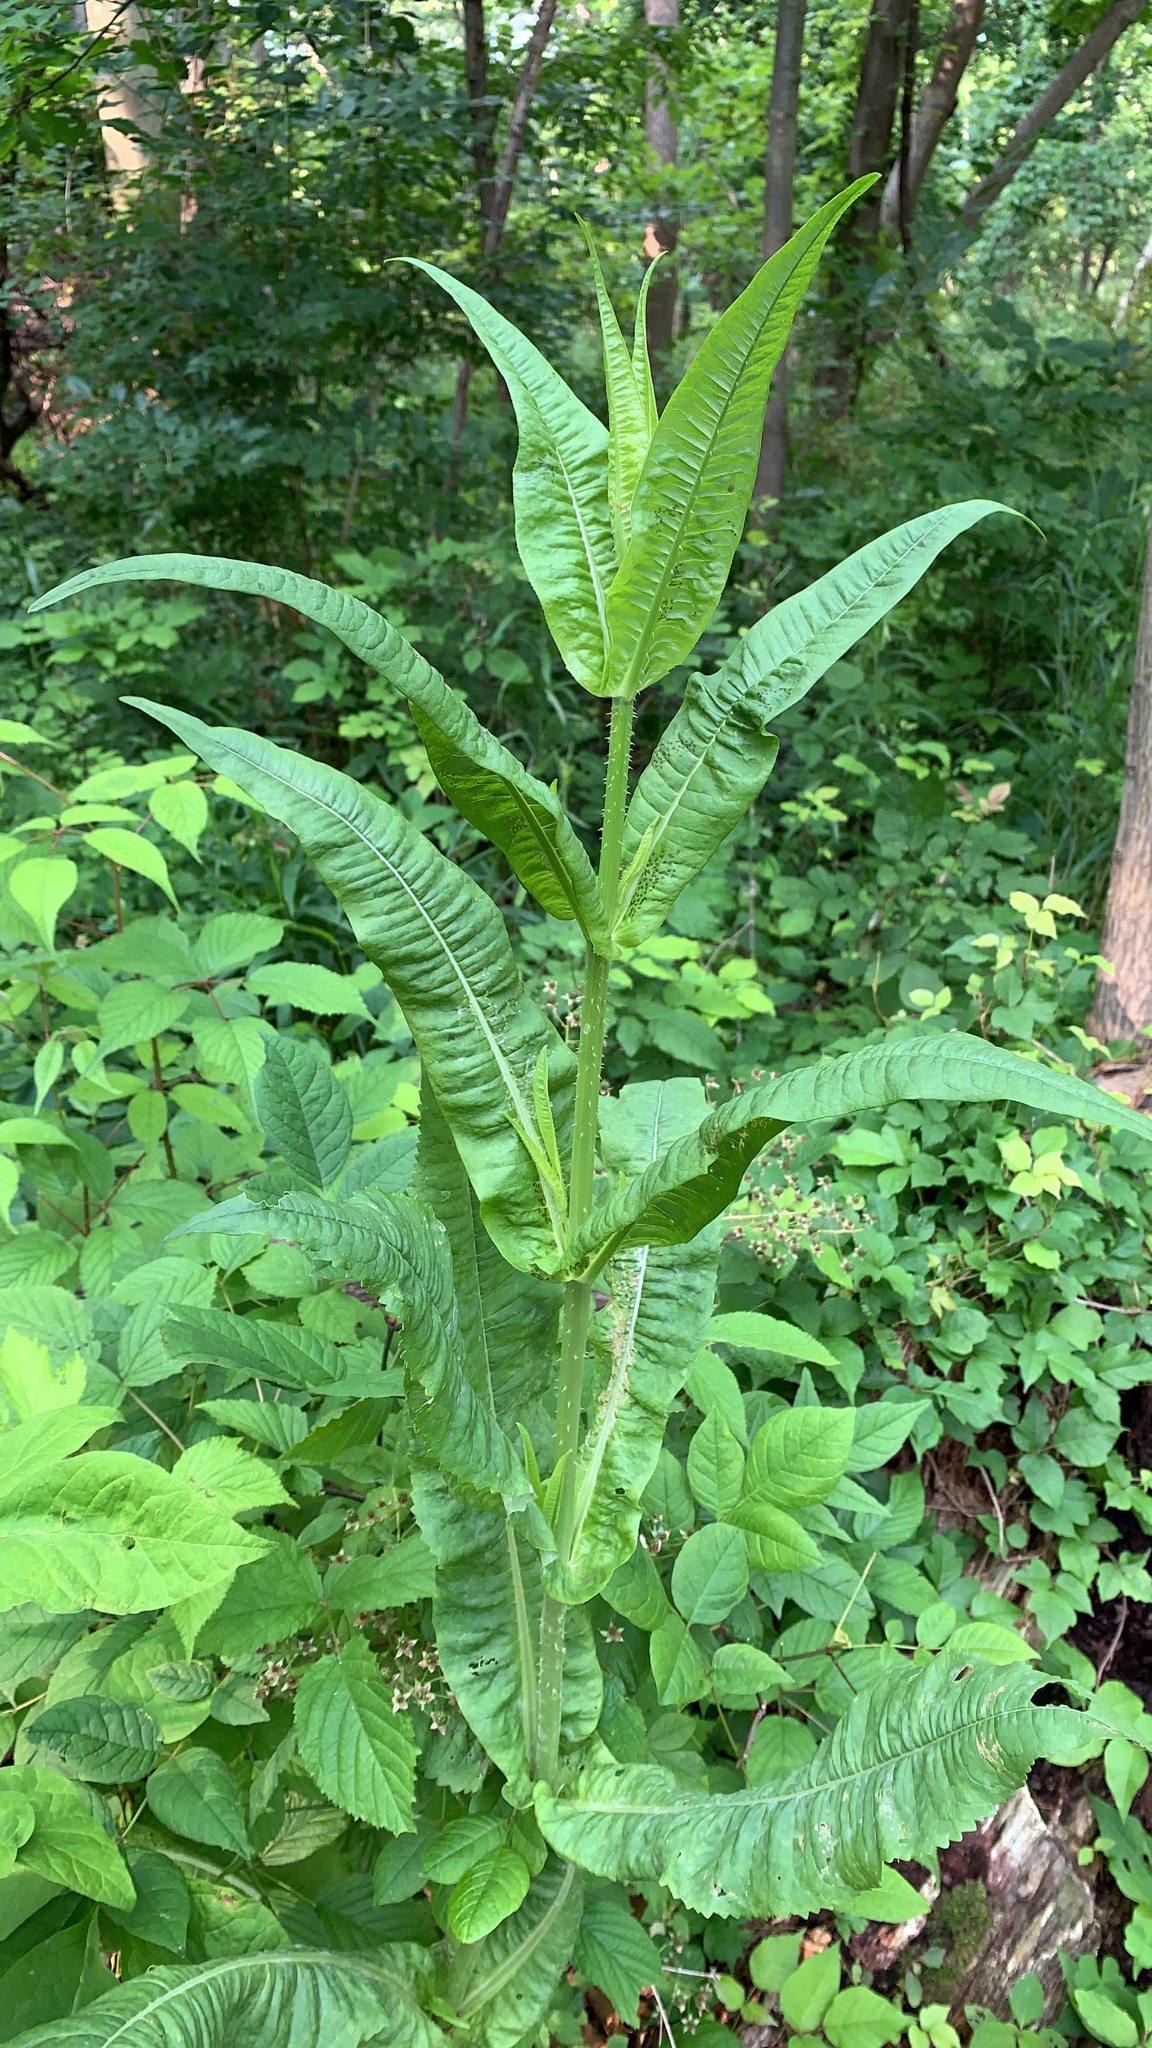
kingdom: Plantae
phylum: Tracheophyta
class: Magnoliopsida
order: Dipsacales
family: Caprifoliaceae
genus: Dipsacus
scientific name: Dipsacus fullonum
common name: Teasel
